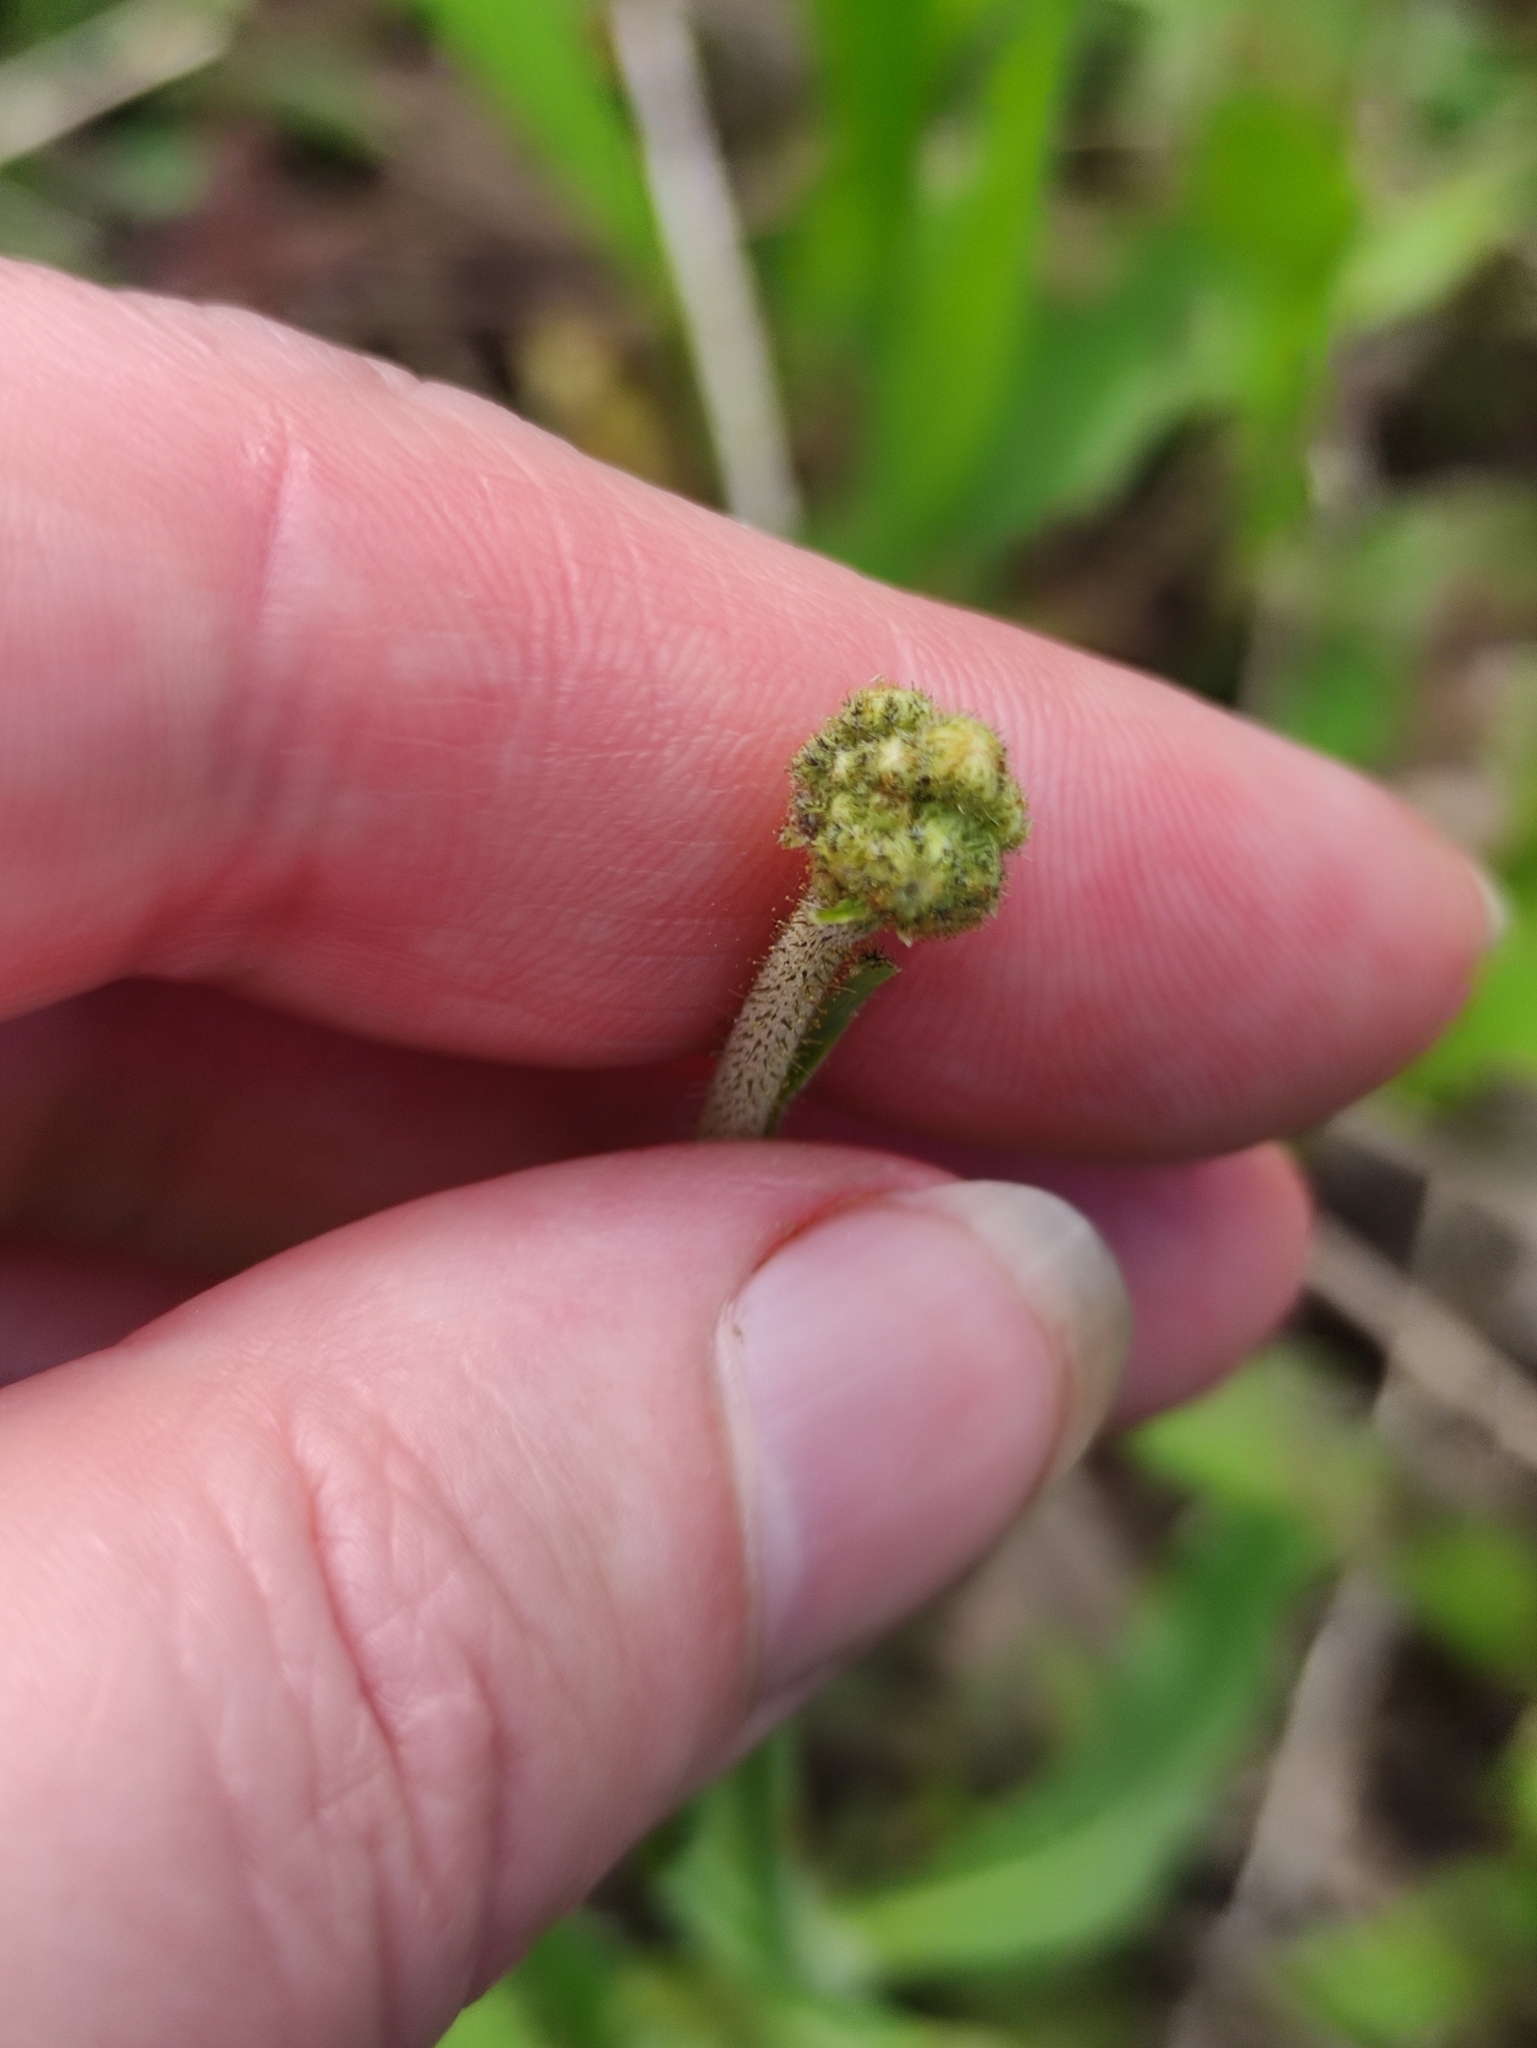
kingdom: Plantae
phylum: Tracheophyta
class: Magnoliopsida
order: Asterales
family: Asteraceae
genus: Pilosella
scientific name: Pilosella officinarum
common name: Mouse-ear hawkweed
